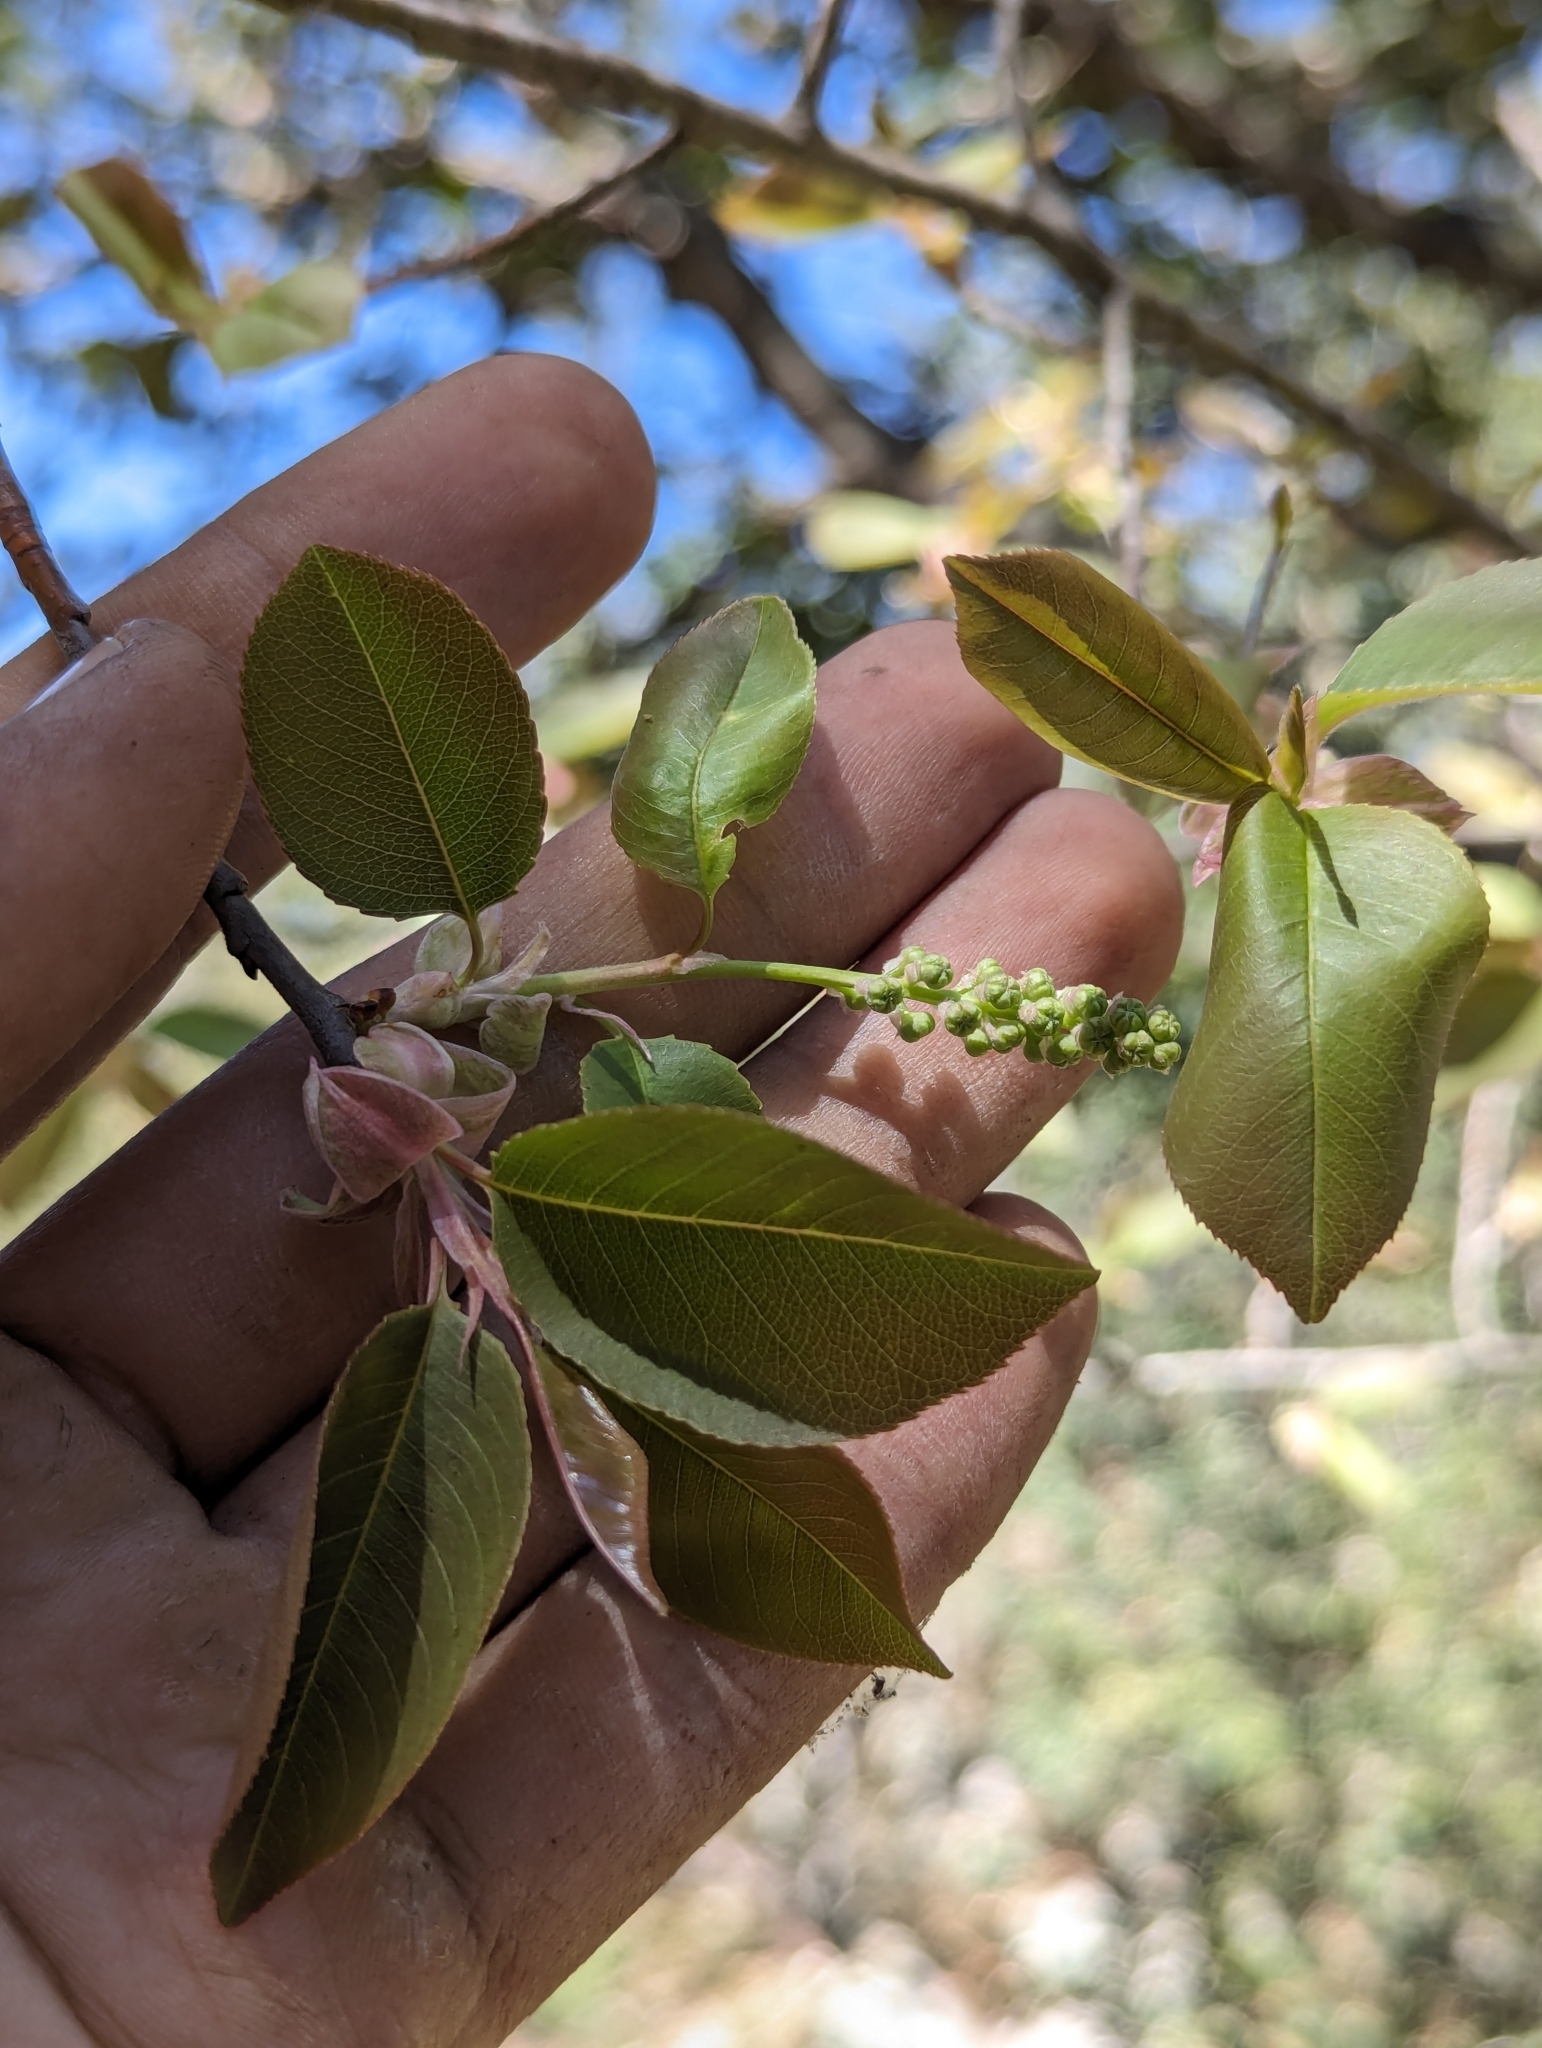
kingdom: Plantae
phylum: Tracheophyta
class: Magnoliopsida
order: Rosales
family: Rosaceae
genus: Prunus
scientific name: Prunus serotina
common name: Black cherry
